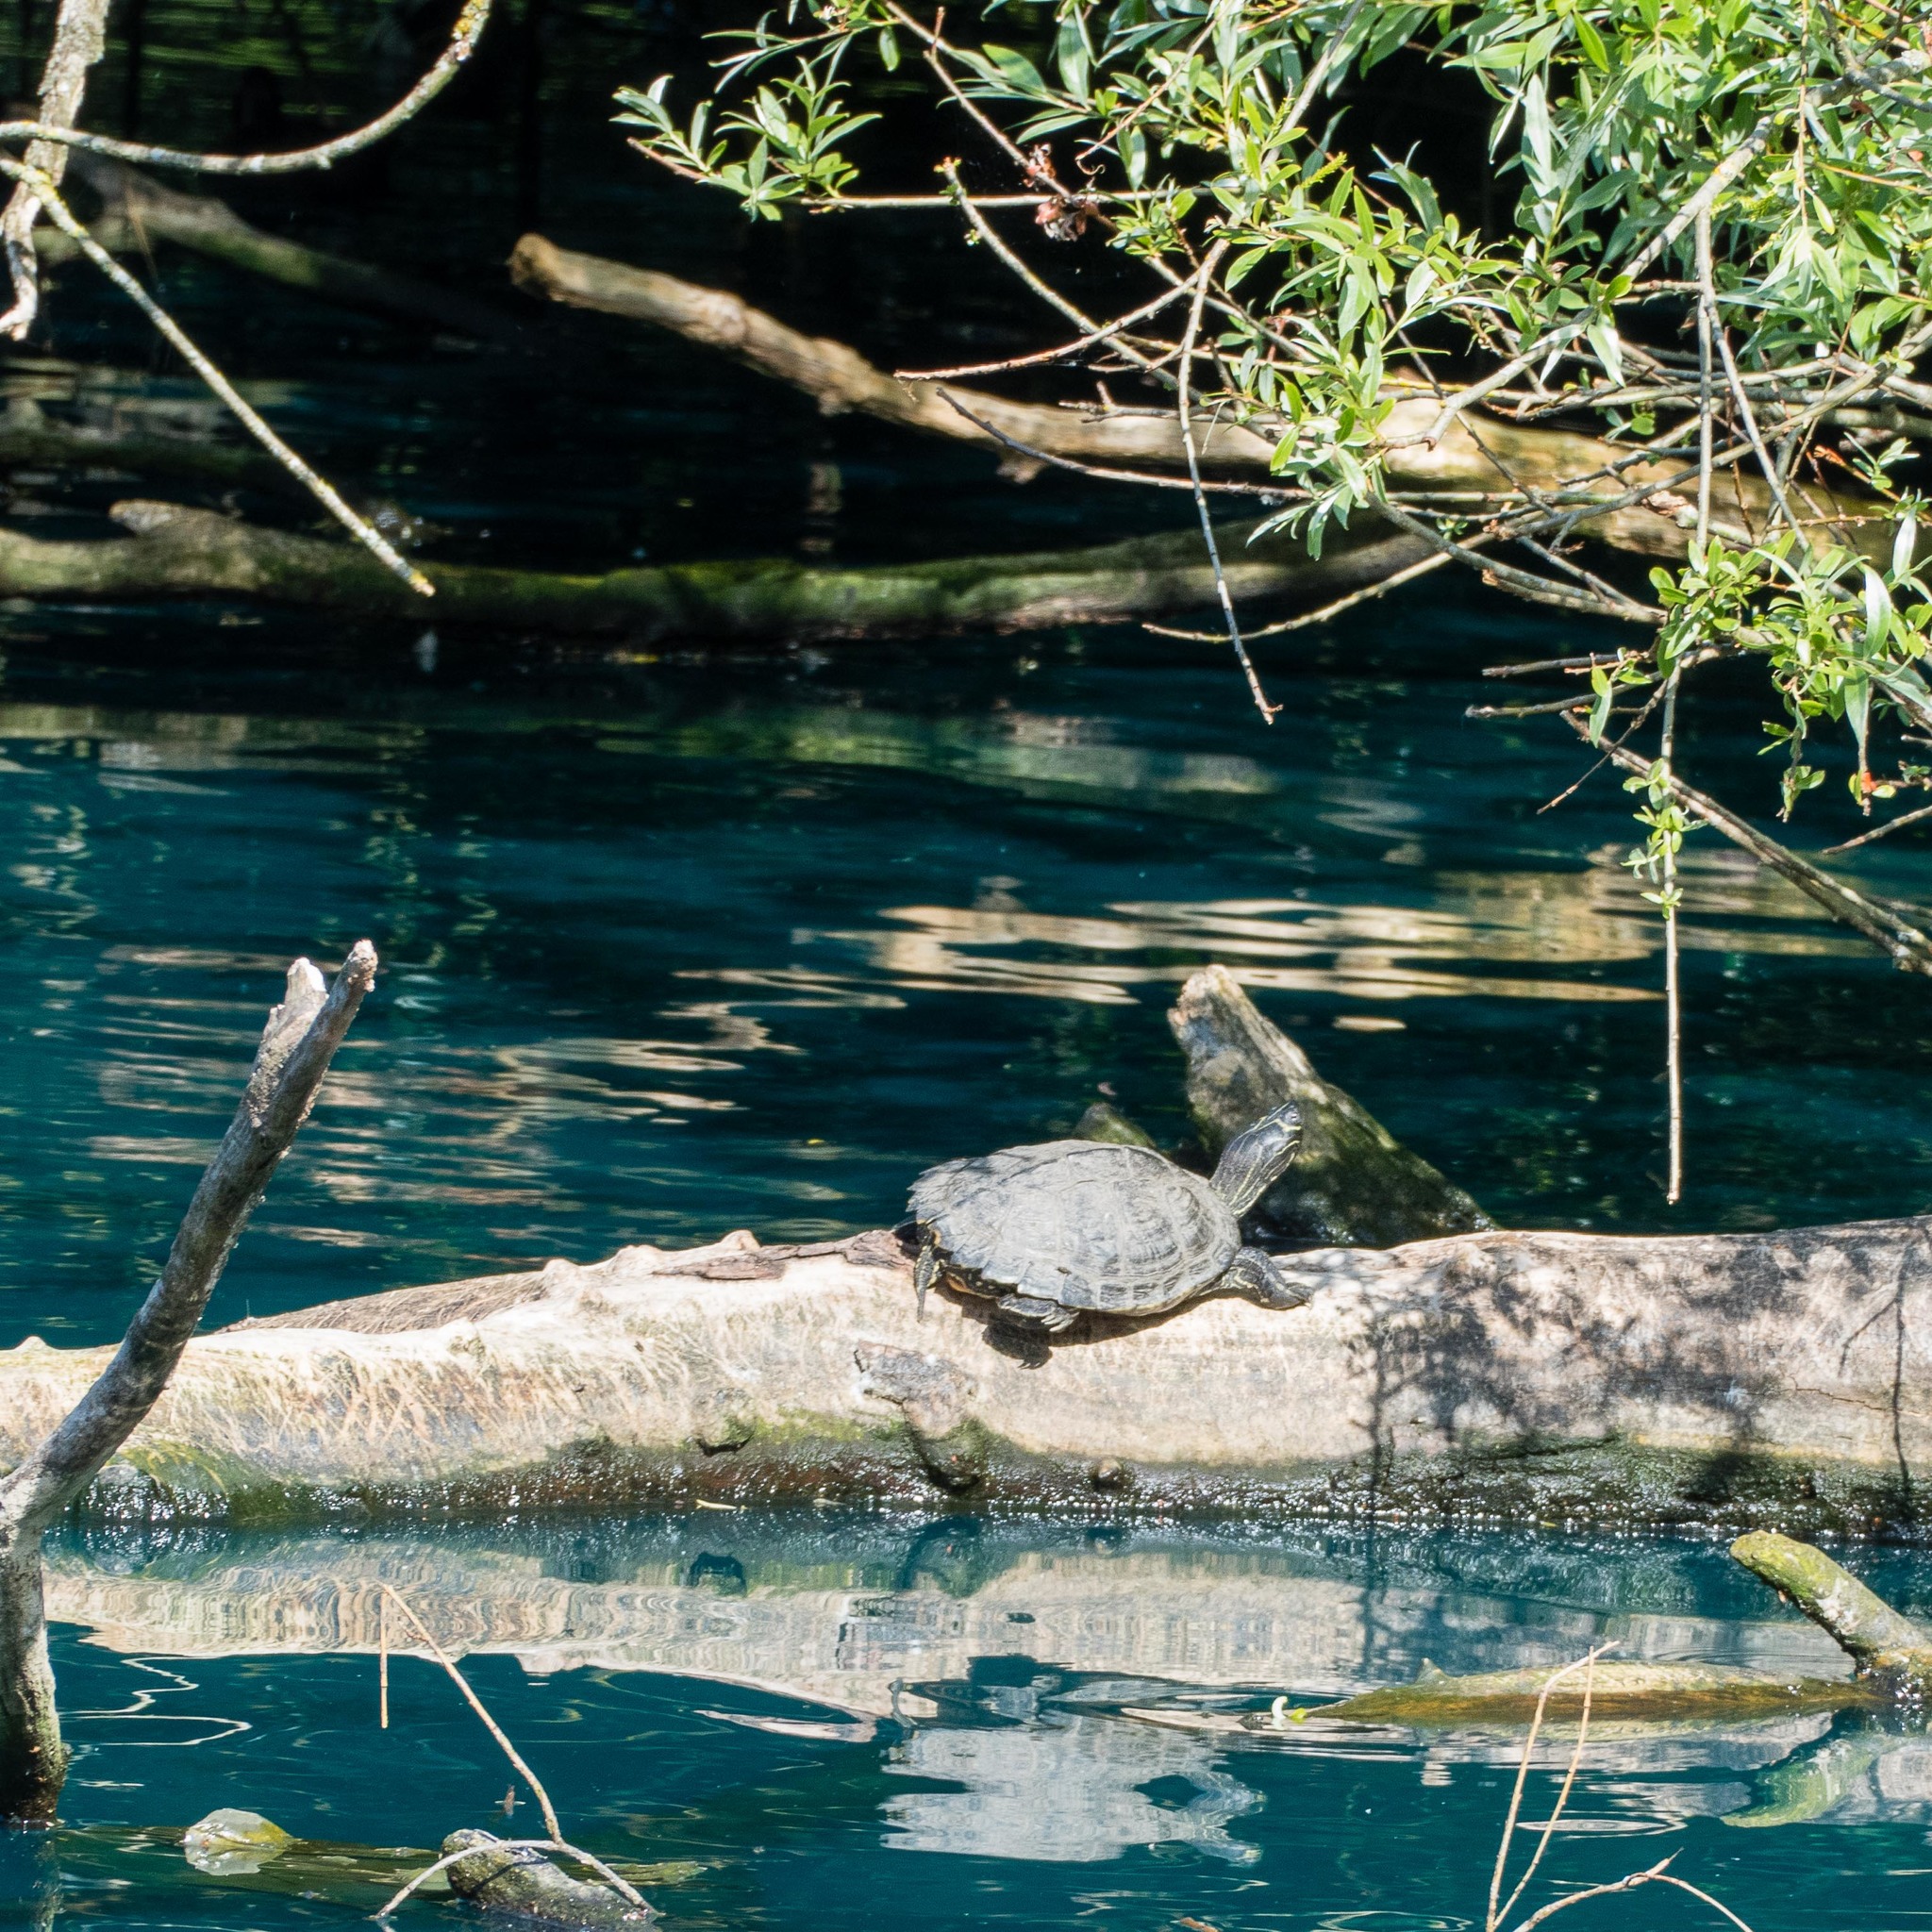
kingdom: Animalia
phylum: Chordata
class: Testudines
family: Emydidae
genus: Trachemys
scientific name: Trachemys scripta
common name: Slider
